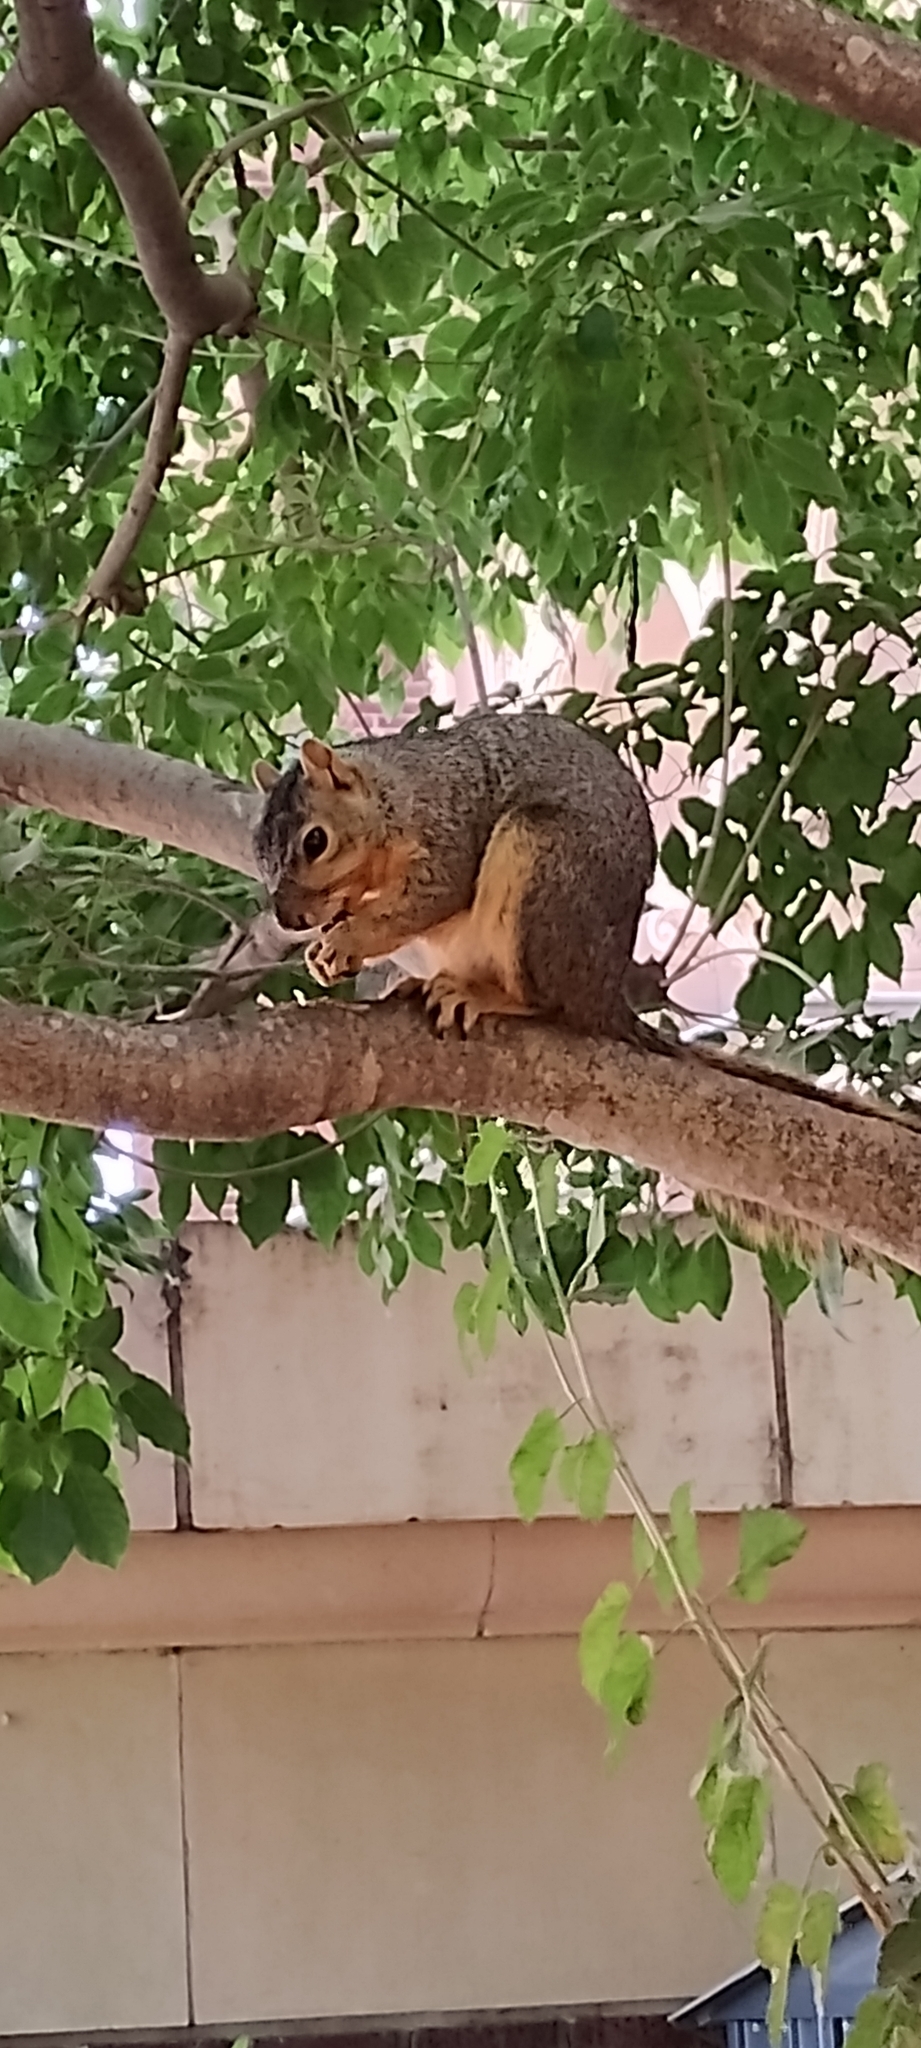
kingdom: Animalia
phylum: Chordata
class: Mammalia
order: Rodentia
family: Sciuridae
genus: Sciurus
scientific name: Sciurus niger
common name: Fox squirrel
